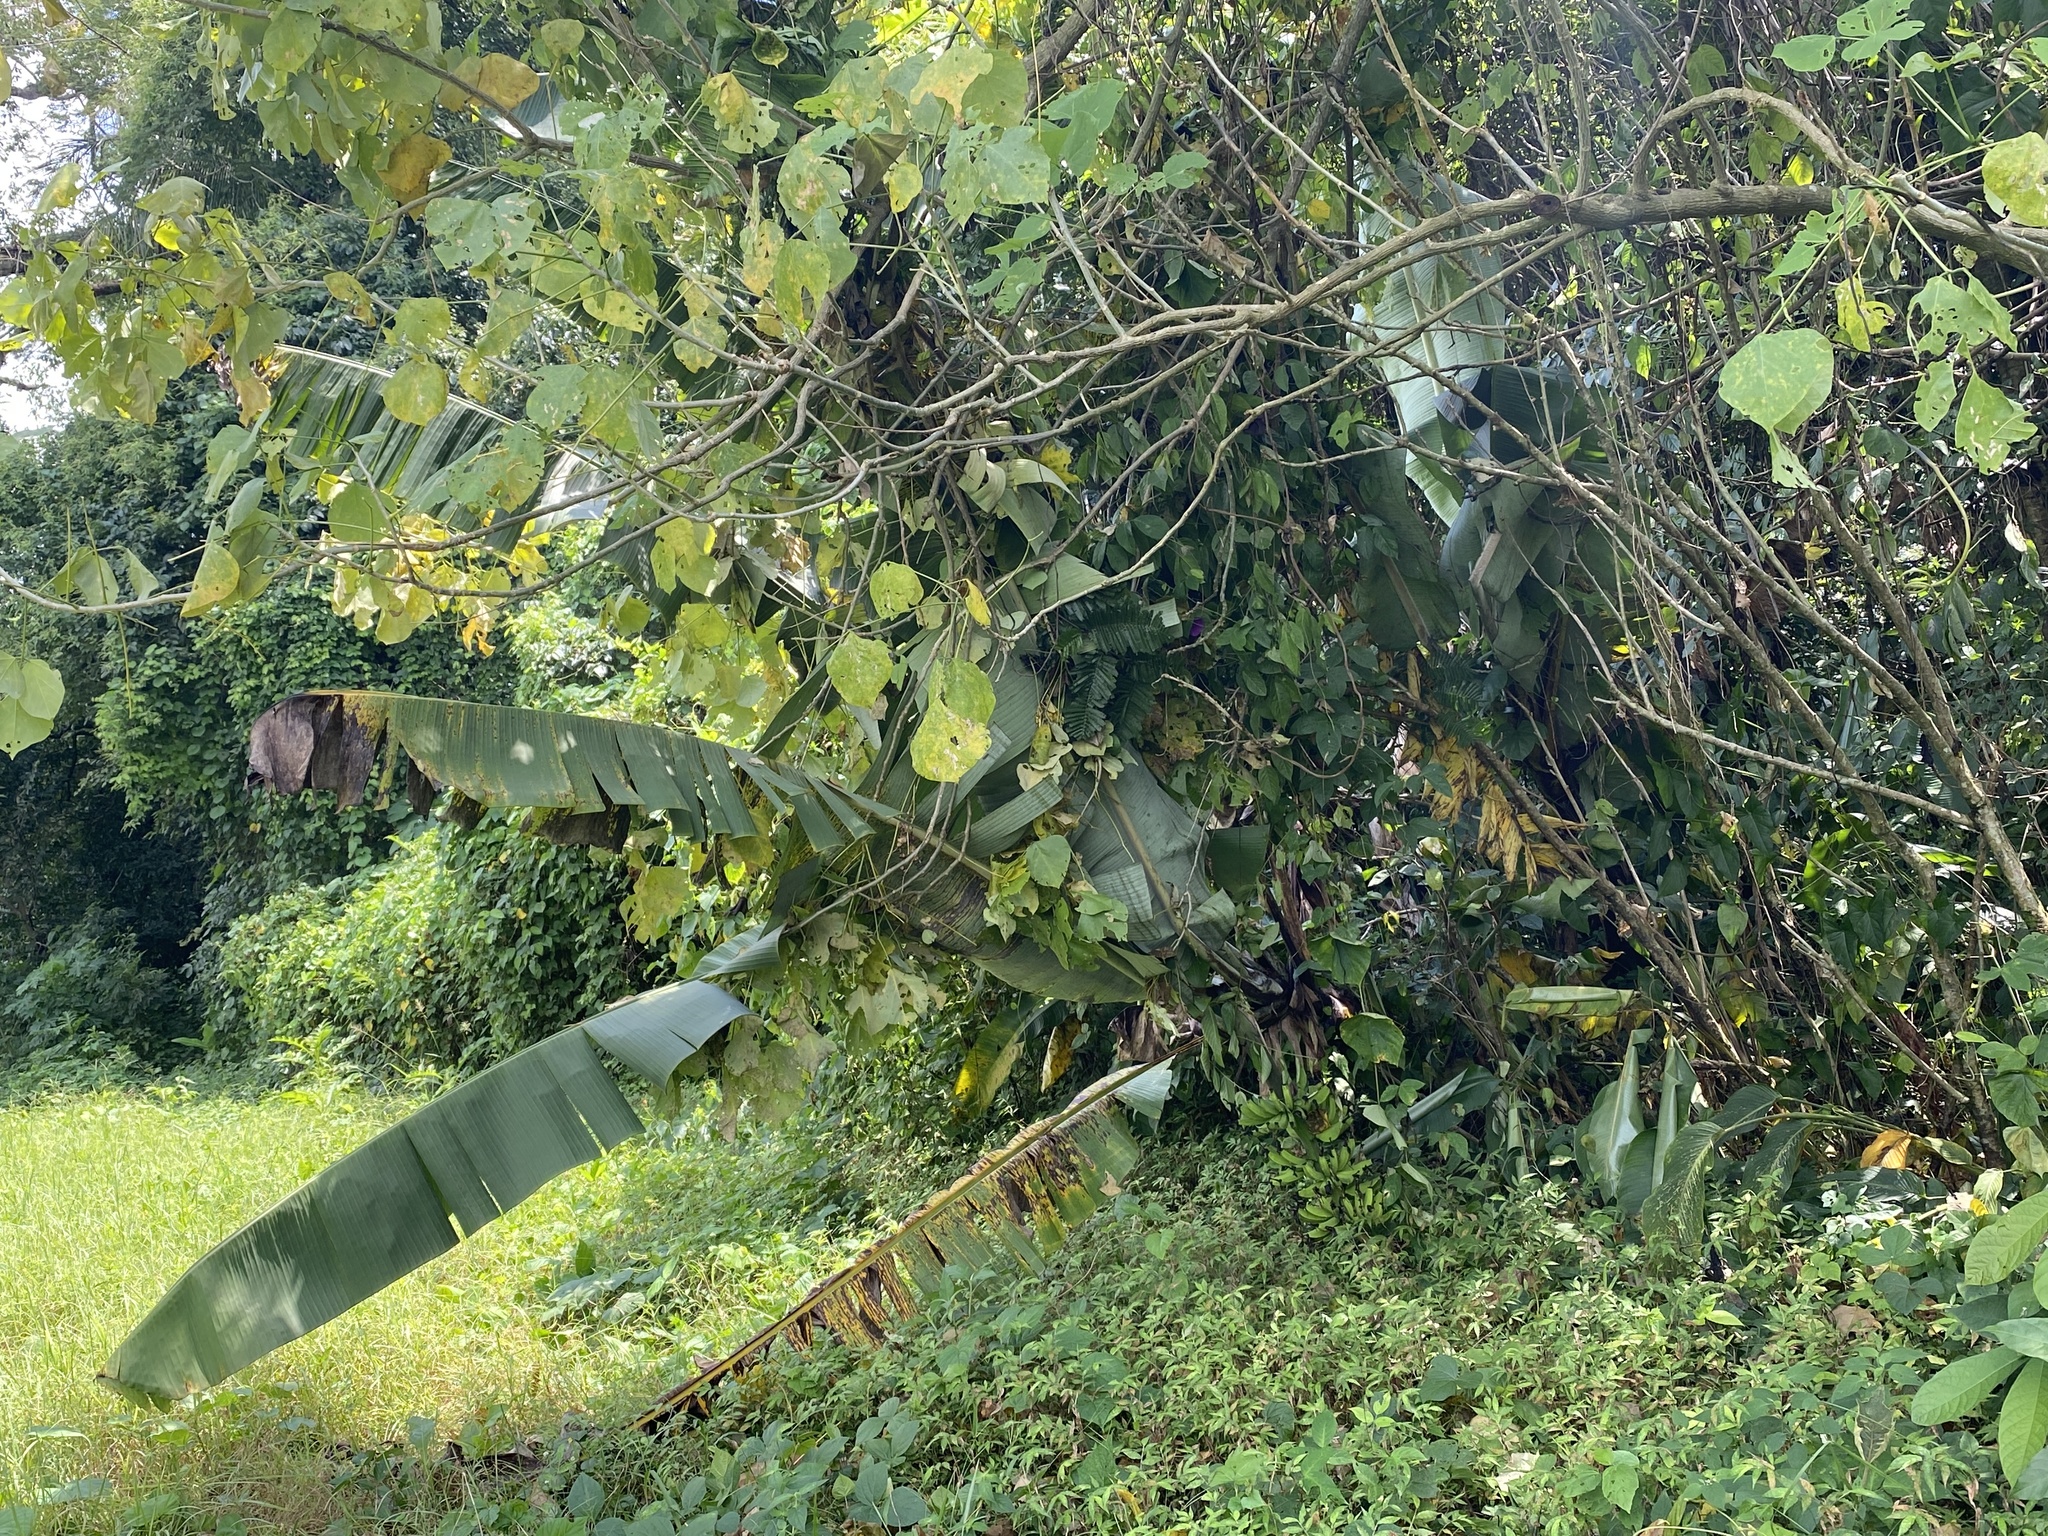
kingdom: Plantae
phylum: Tracheophyta
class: Liliopsida
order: Zingiberales
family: Musaceae
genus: Musa
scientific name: Musa acuminata
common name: Edible banana
